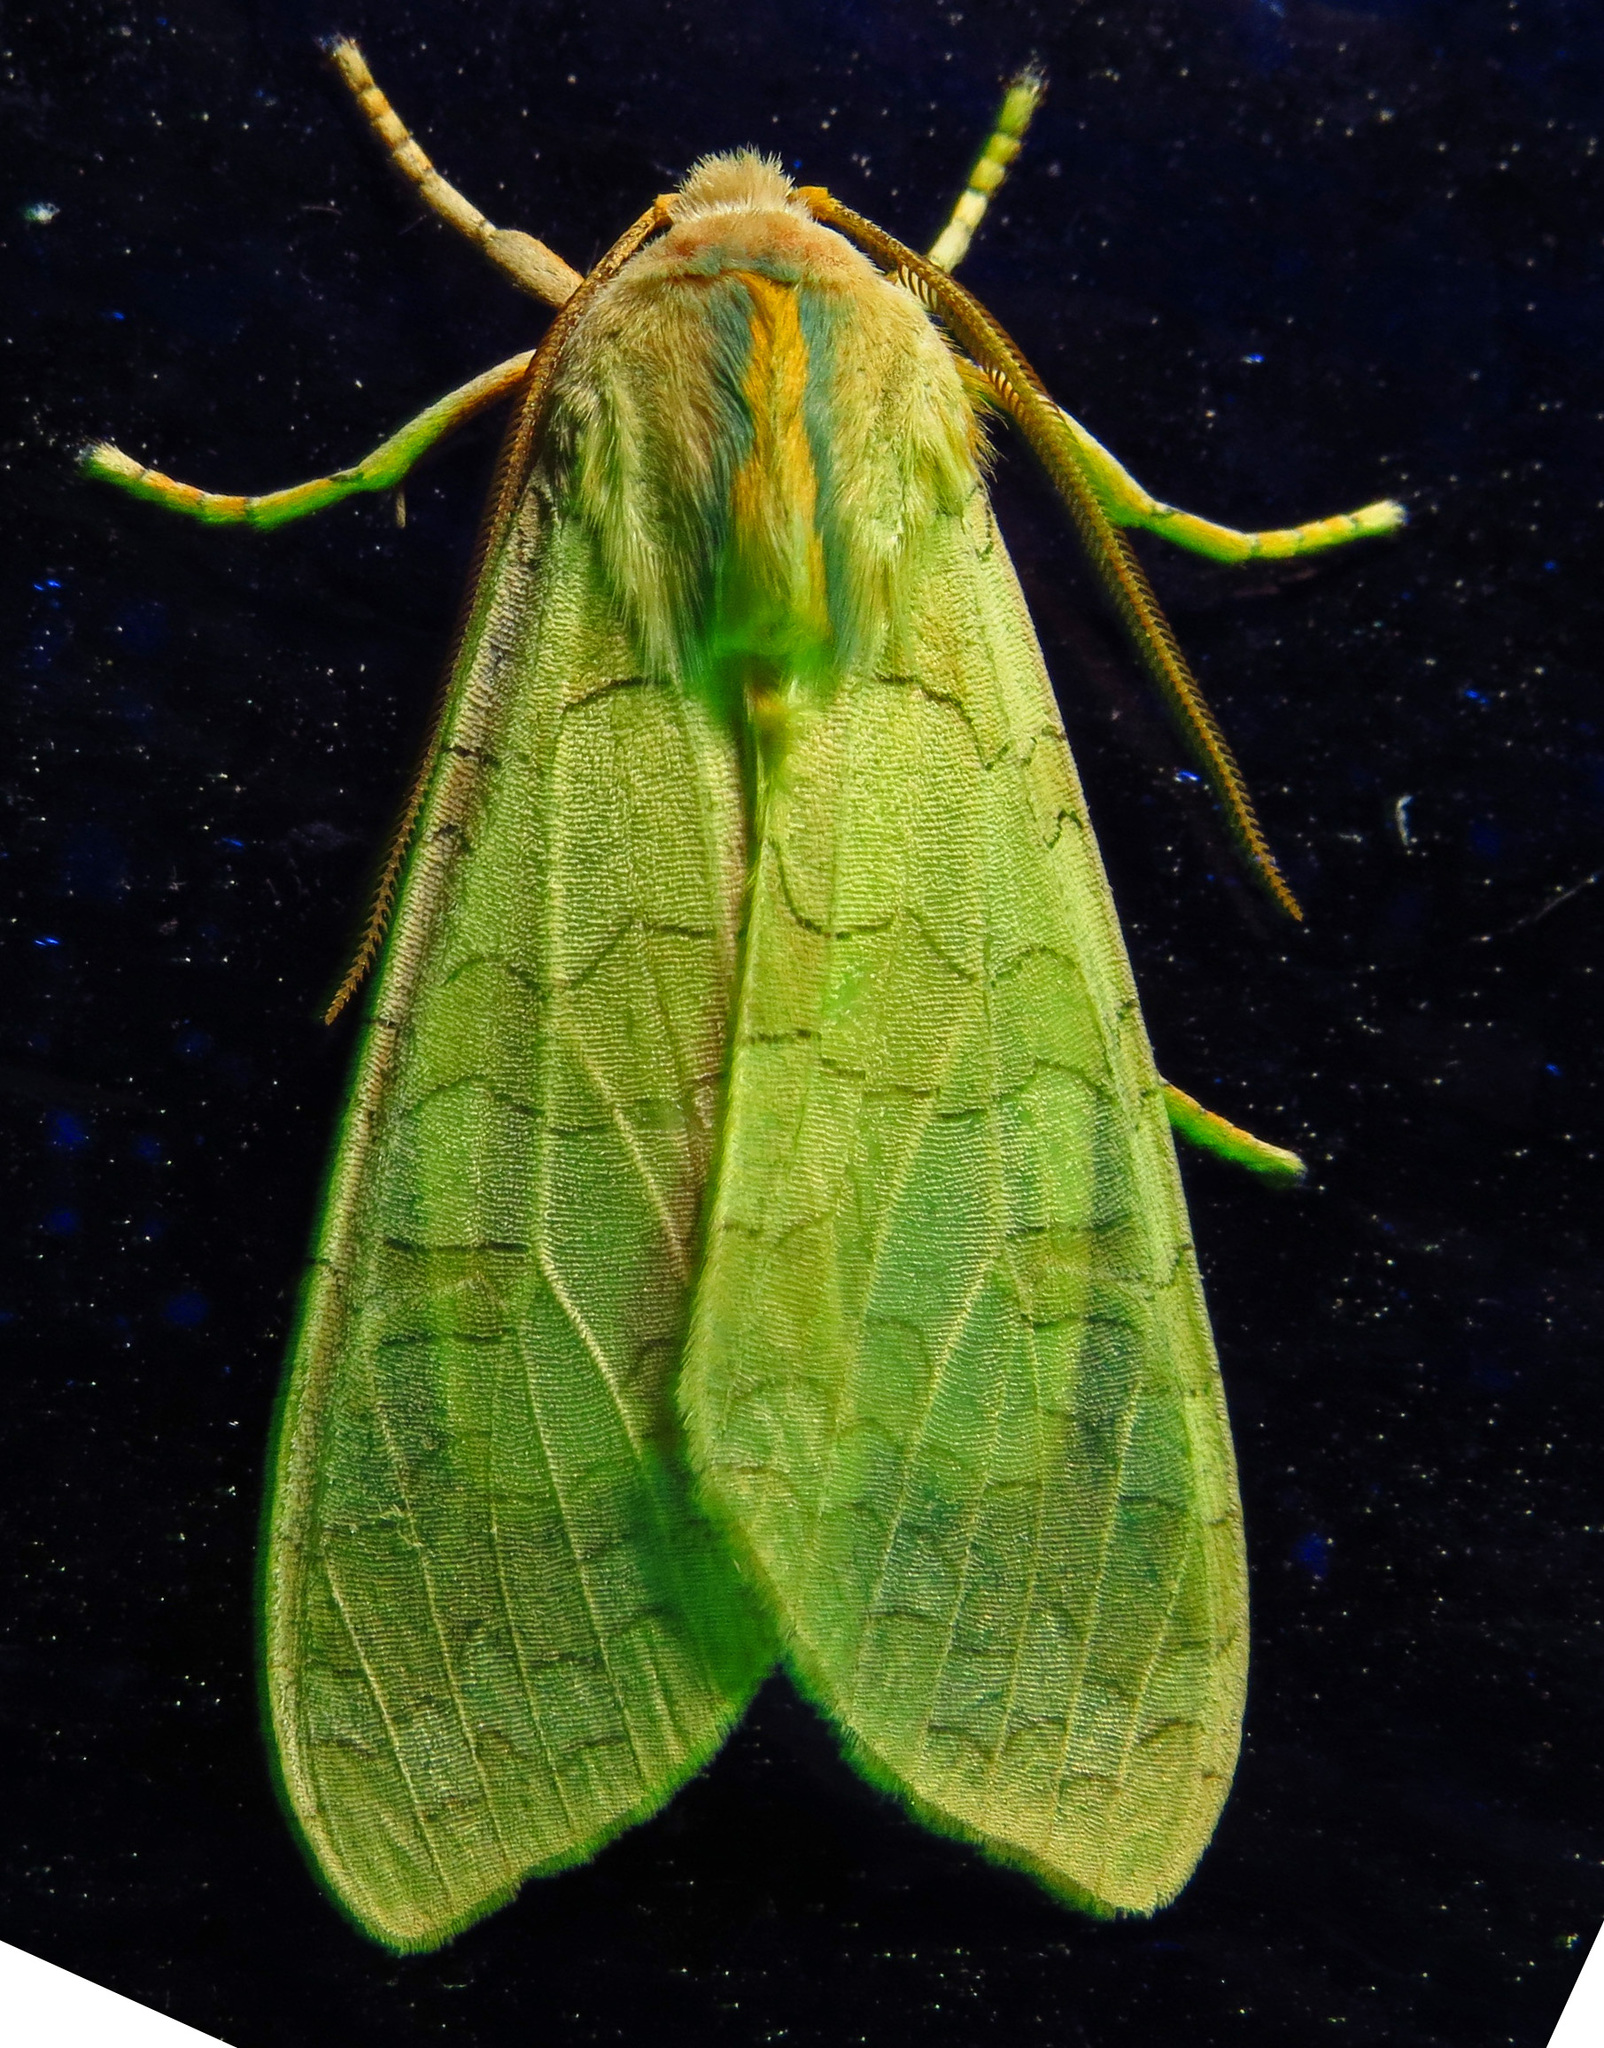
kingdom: Animalia
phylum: Arthropoda
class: Insecta
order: Lepidoptera
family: Erebidae
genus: Halysidota
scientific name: Halysidota
